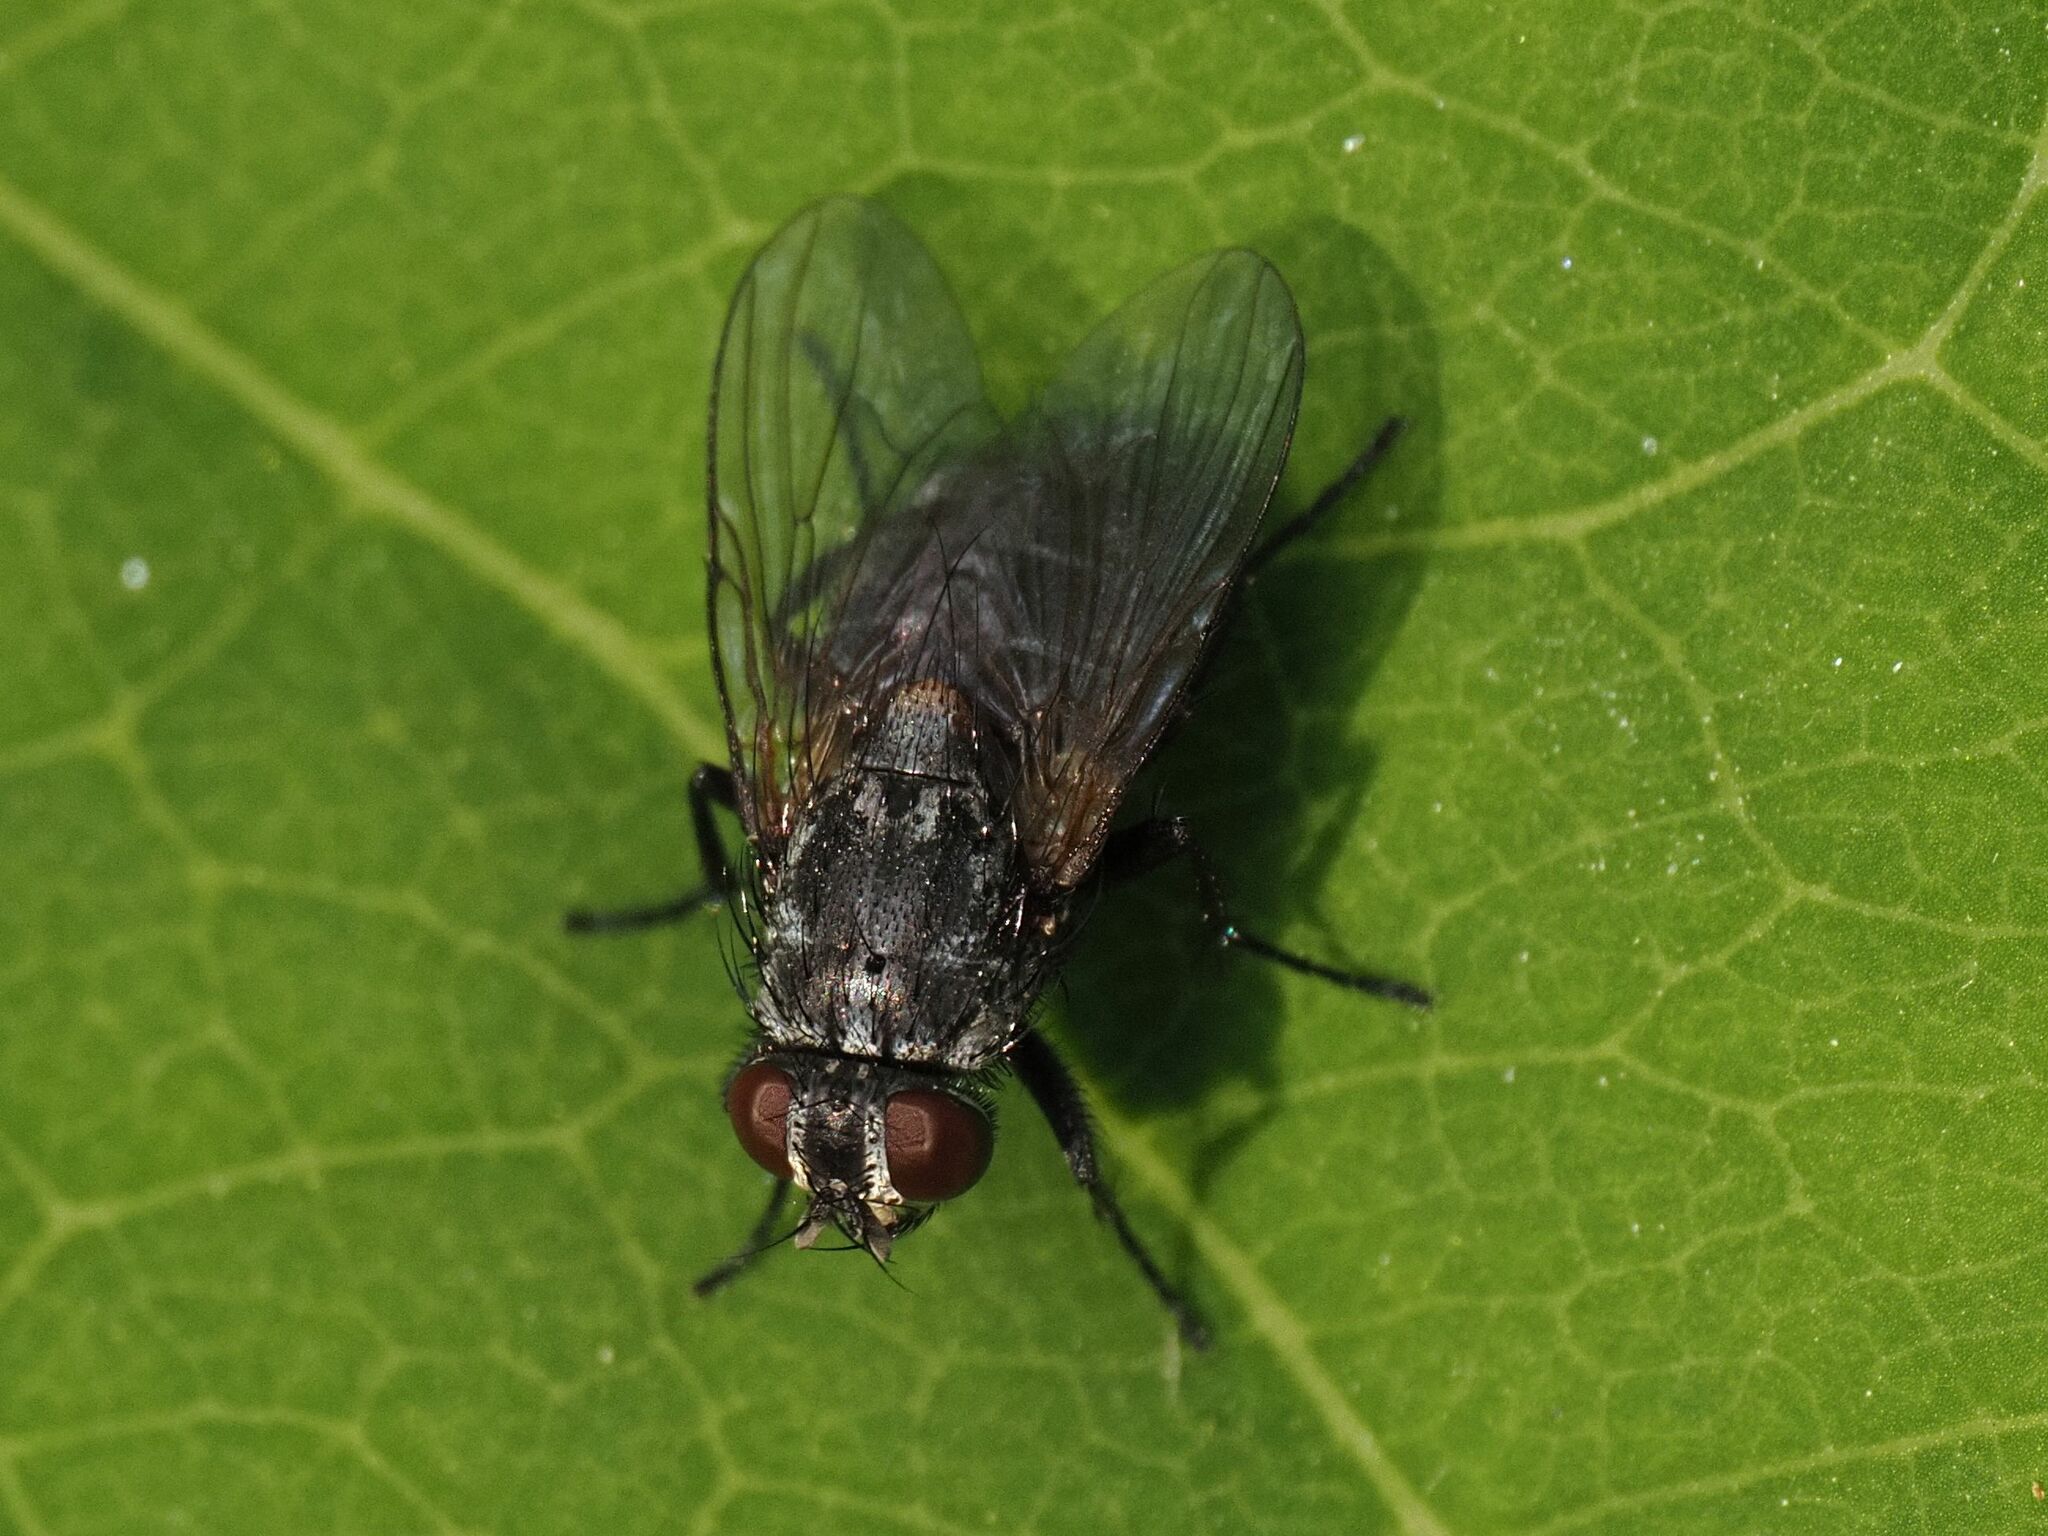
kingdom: Animalia
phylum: Arthropoda
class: Insecta
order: Diptera
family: Muscidae
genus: Muscina
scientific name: Muscina levida
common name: House fly
